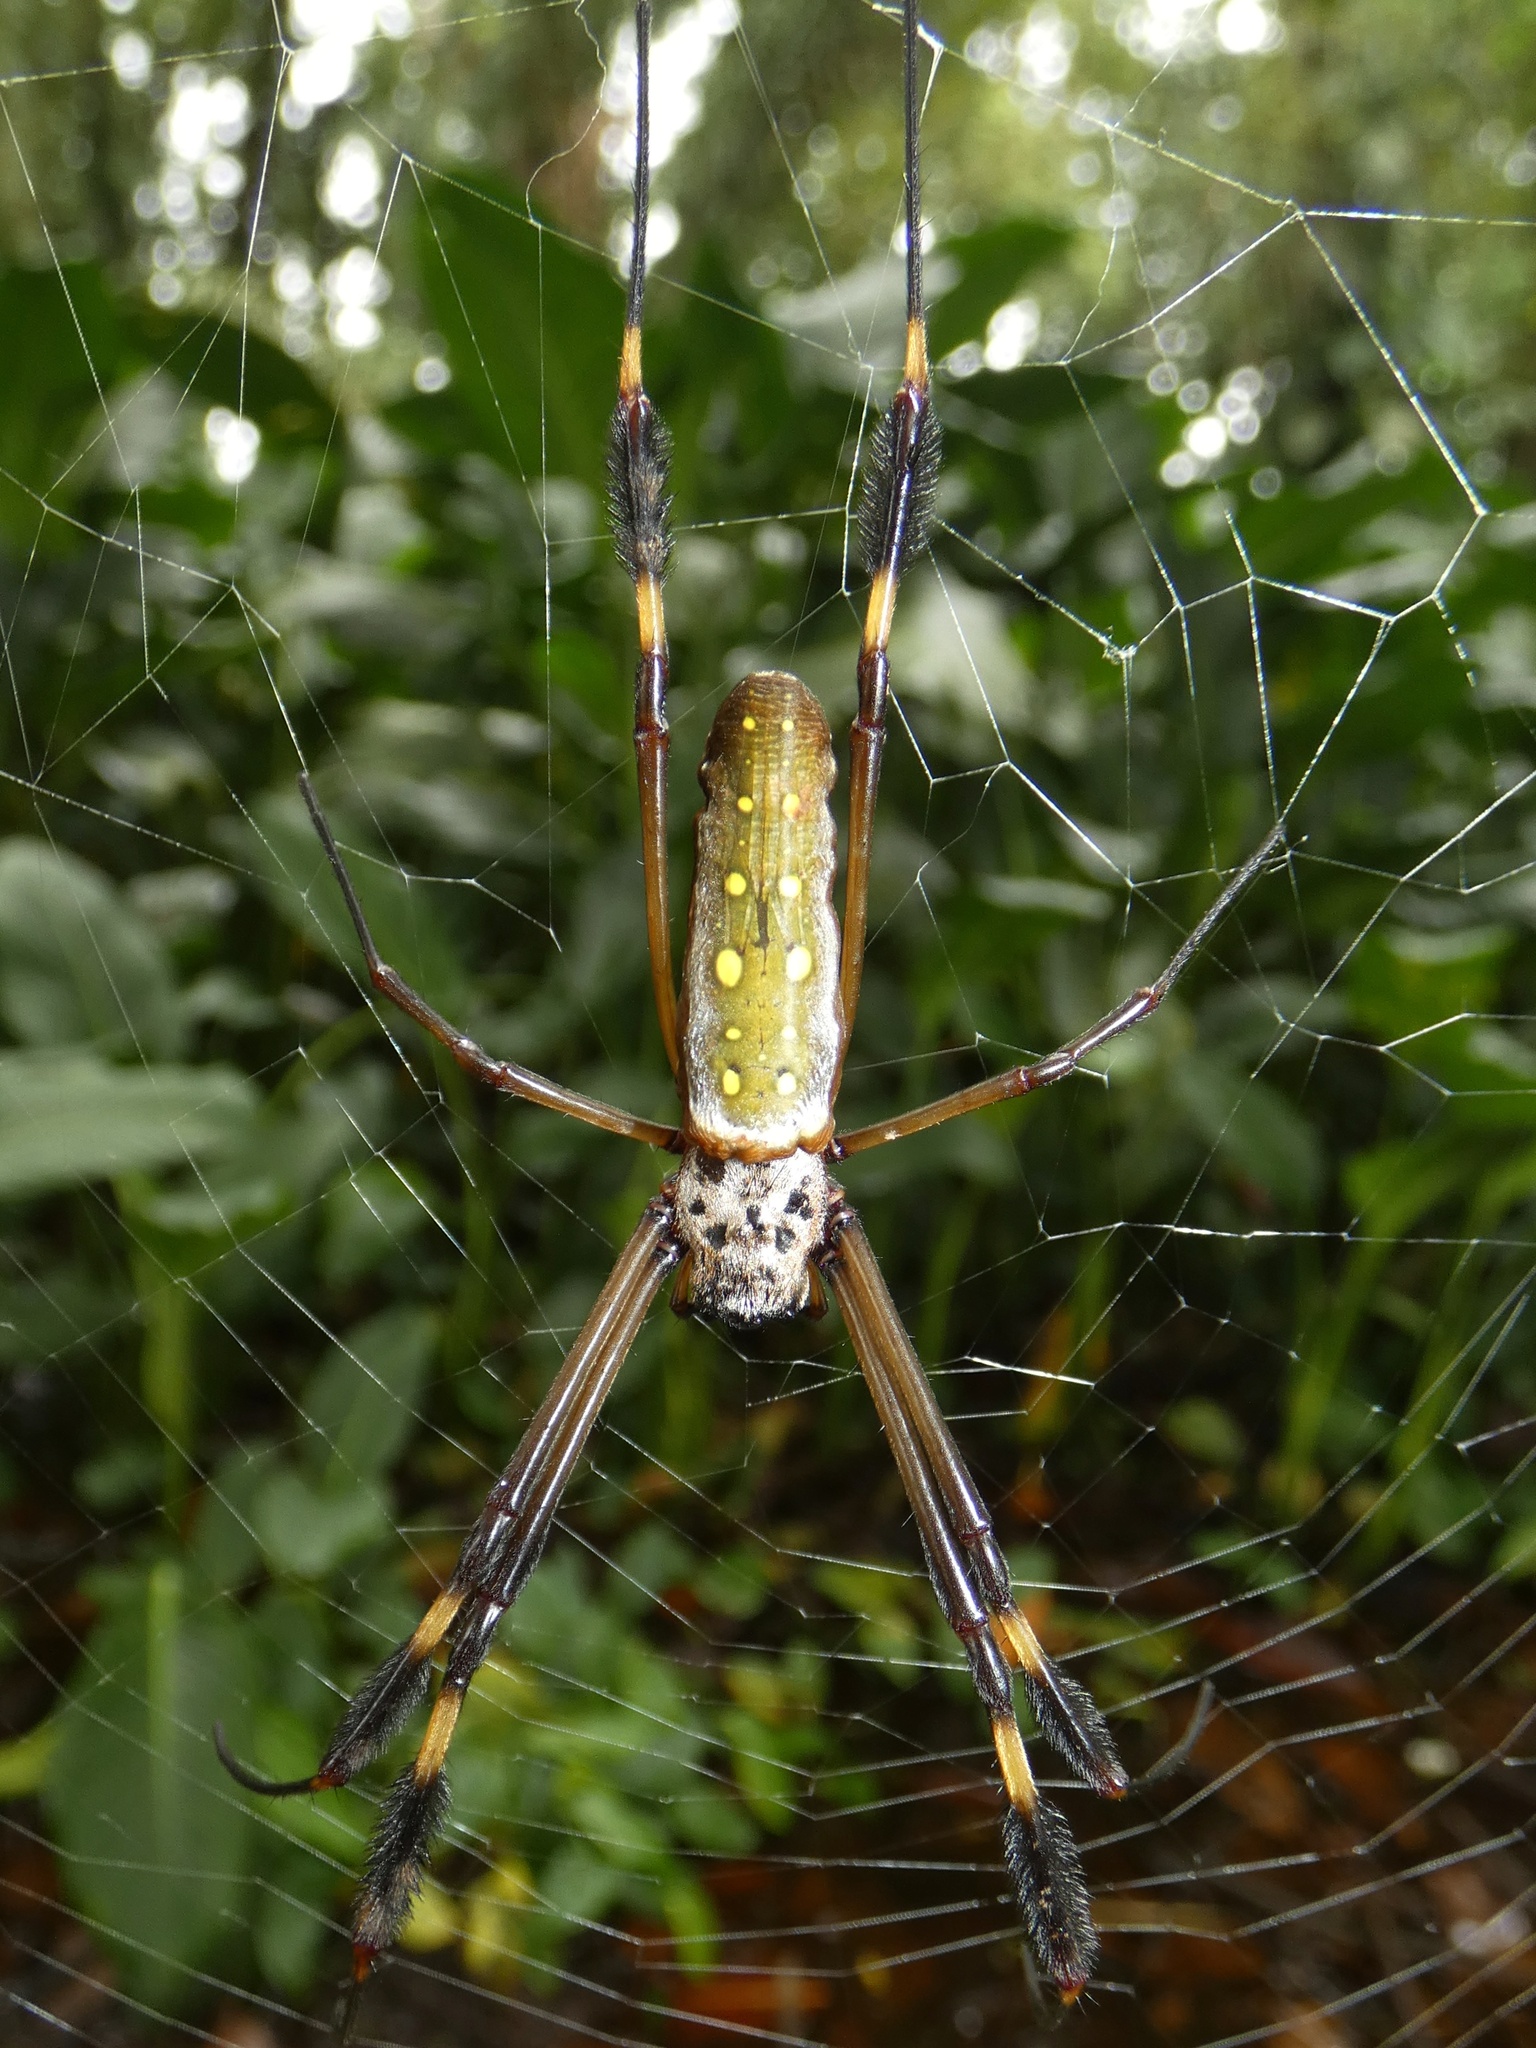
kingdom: Animalia
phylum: Arthropoda
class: Arachnida
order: Araneae
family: Araneidae
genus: Trichonephila
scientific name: Trichonephila clavipes
